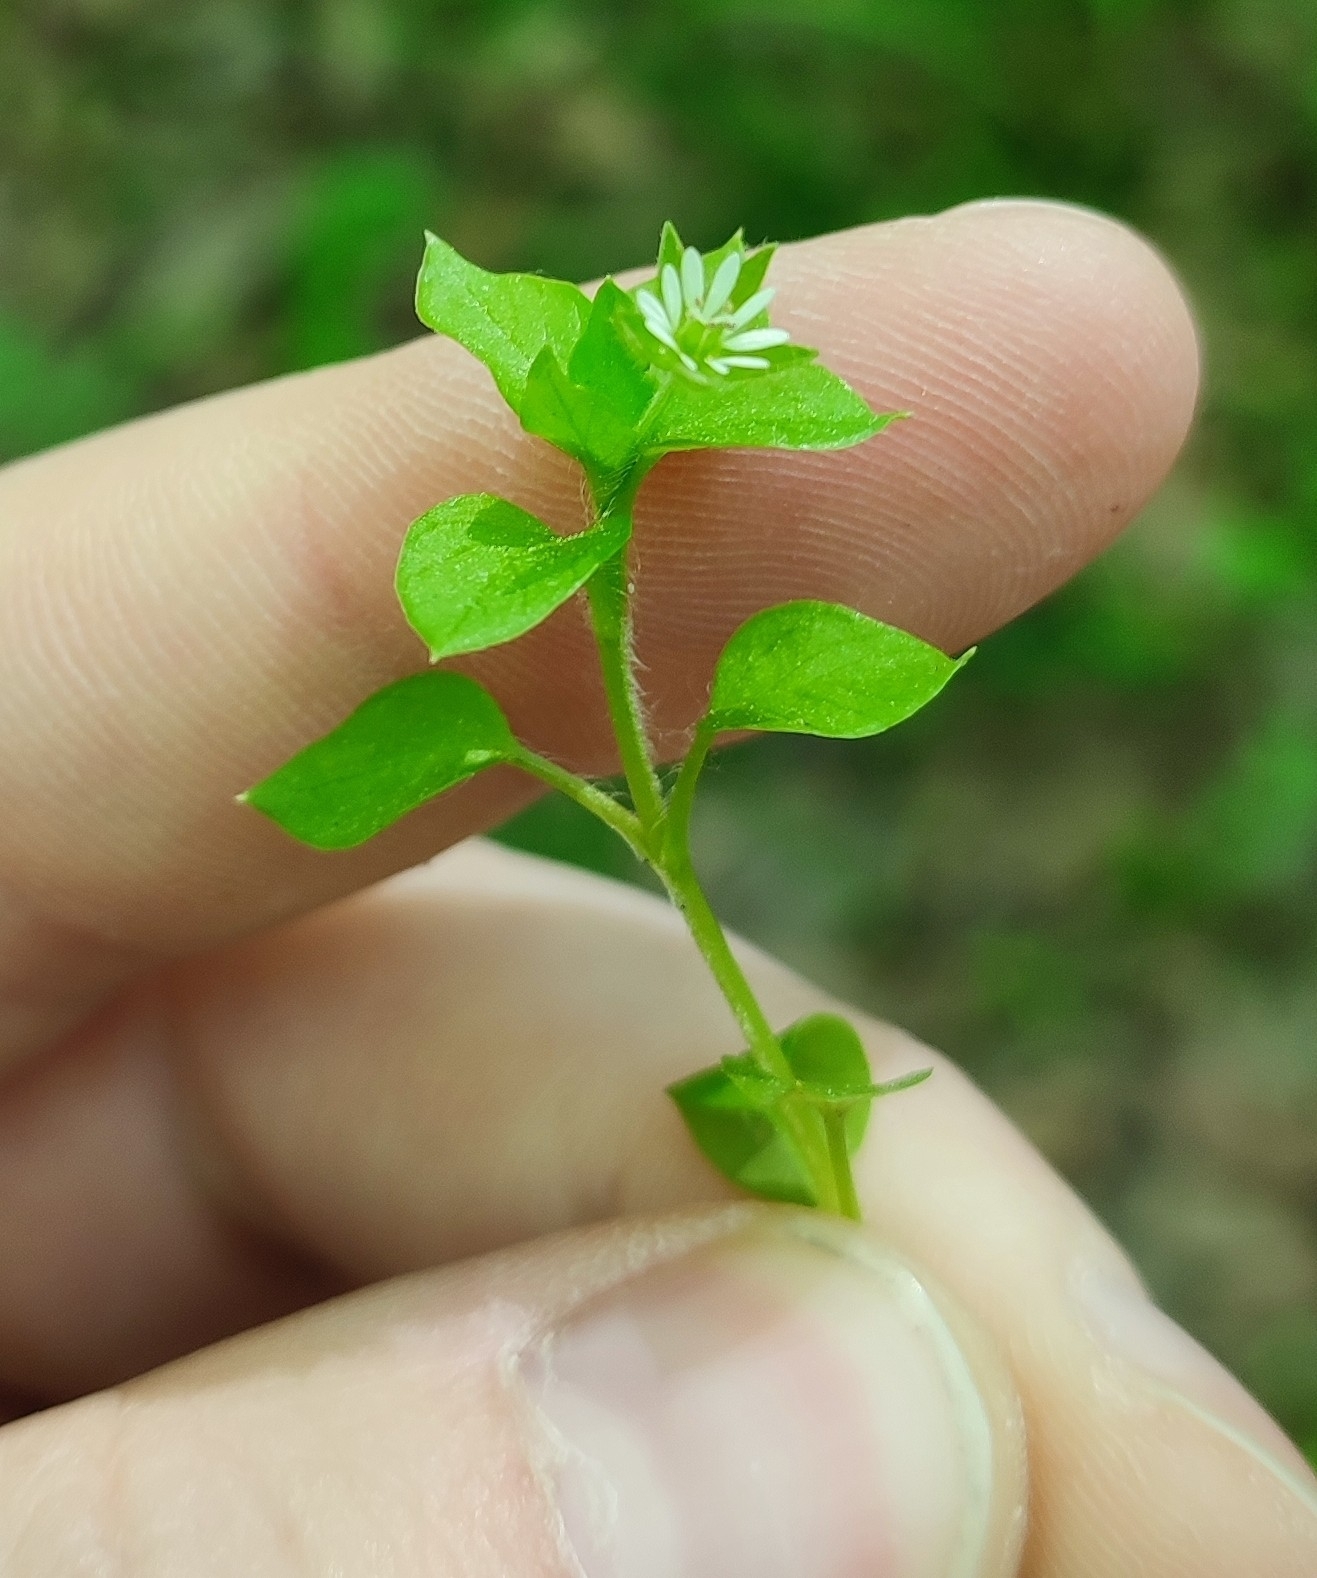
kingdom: Plantae
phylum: Tracheophyta
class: Magnoliopsida
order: Caryophyllales
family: Caryophyllaceae
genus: Stellaria
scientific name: Stellaria media
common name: Common chickweed
